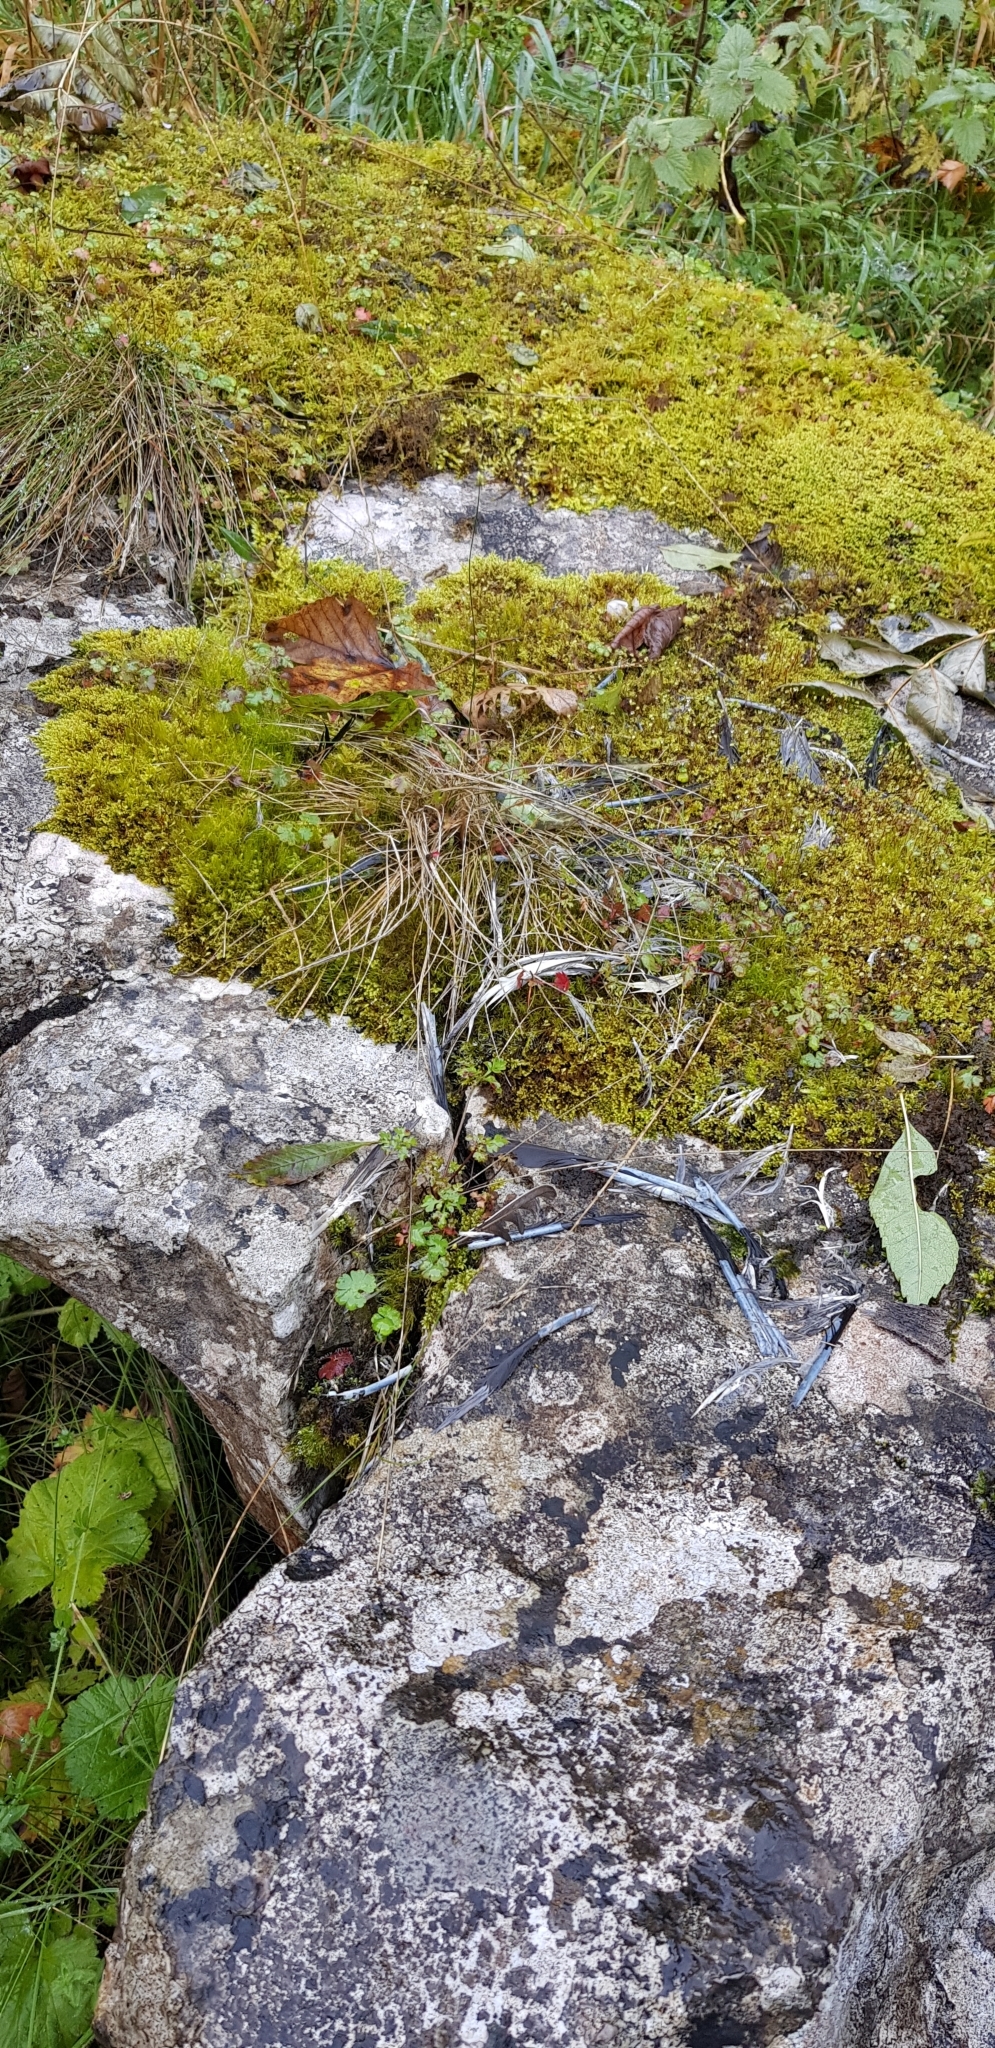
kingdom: Plantae
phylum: Bryophyta
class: Bryopsida
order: Hypnales
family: Myuriaceae
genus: Ctenidium
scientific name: Ctenidium molluscum
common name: Chalk comb-moss
